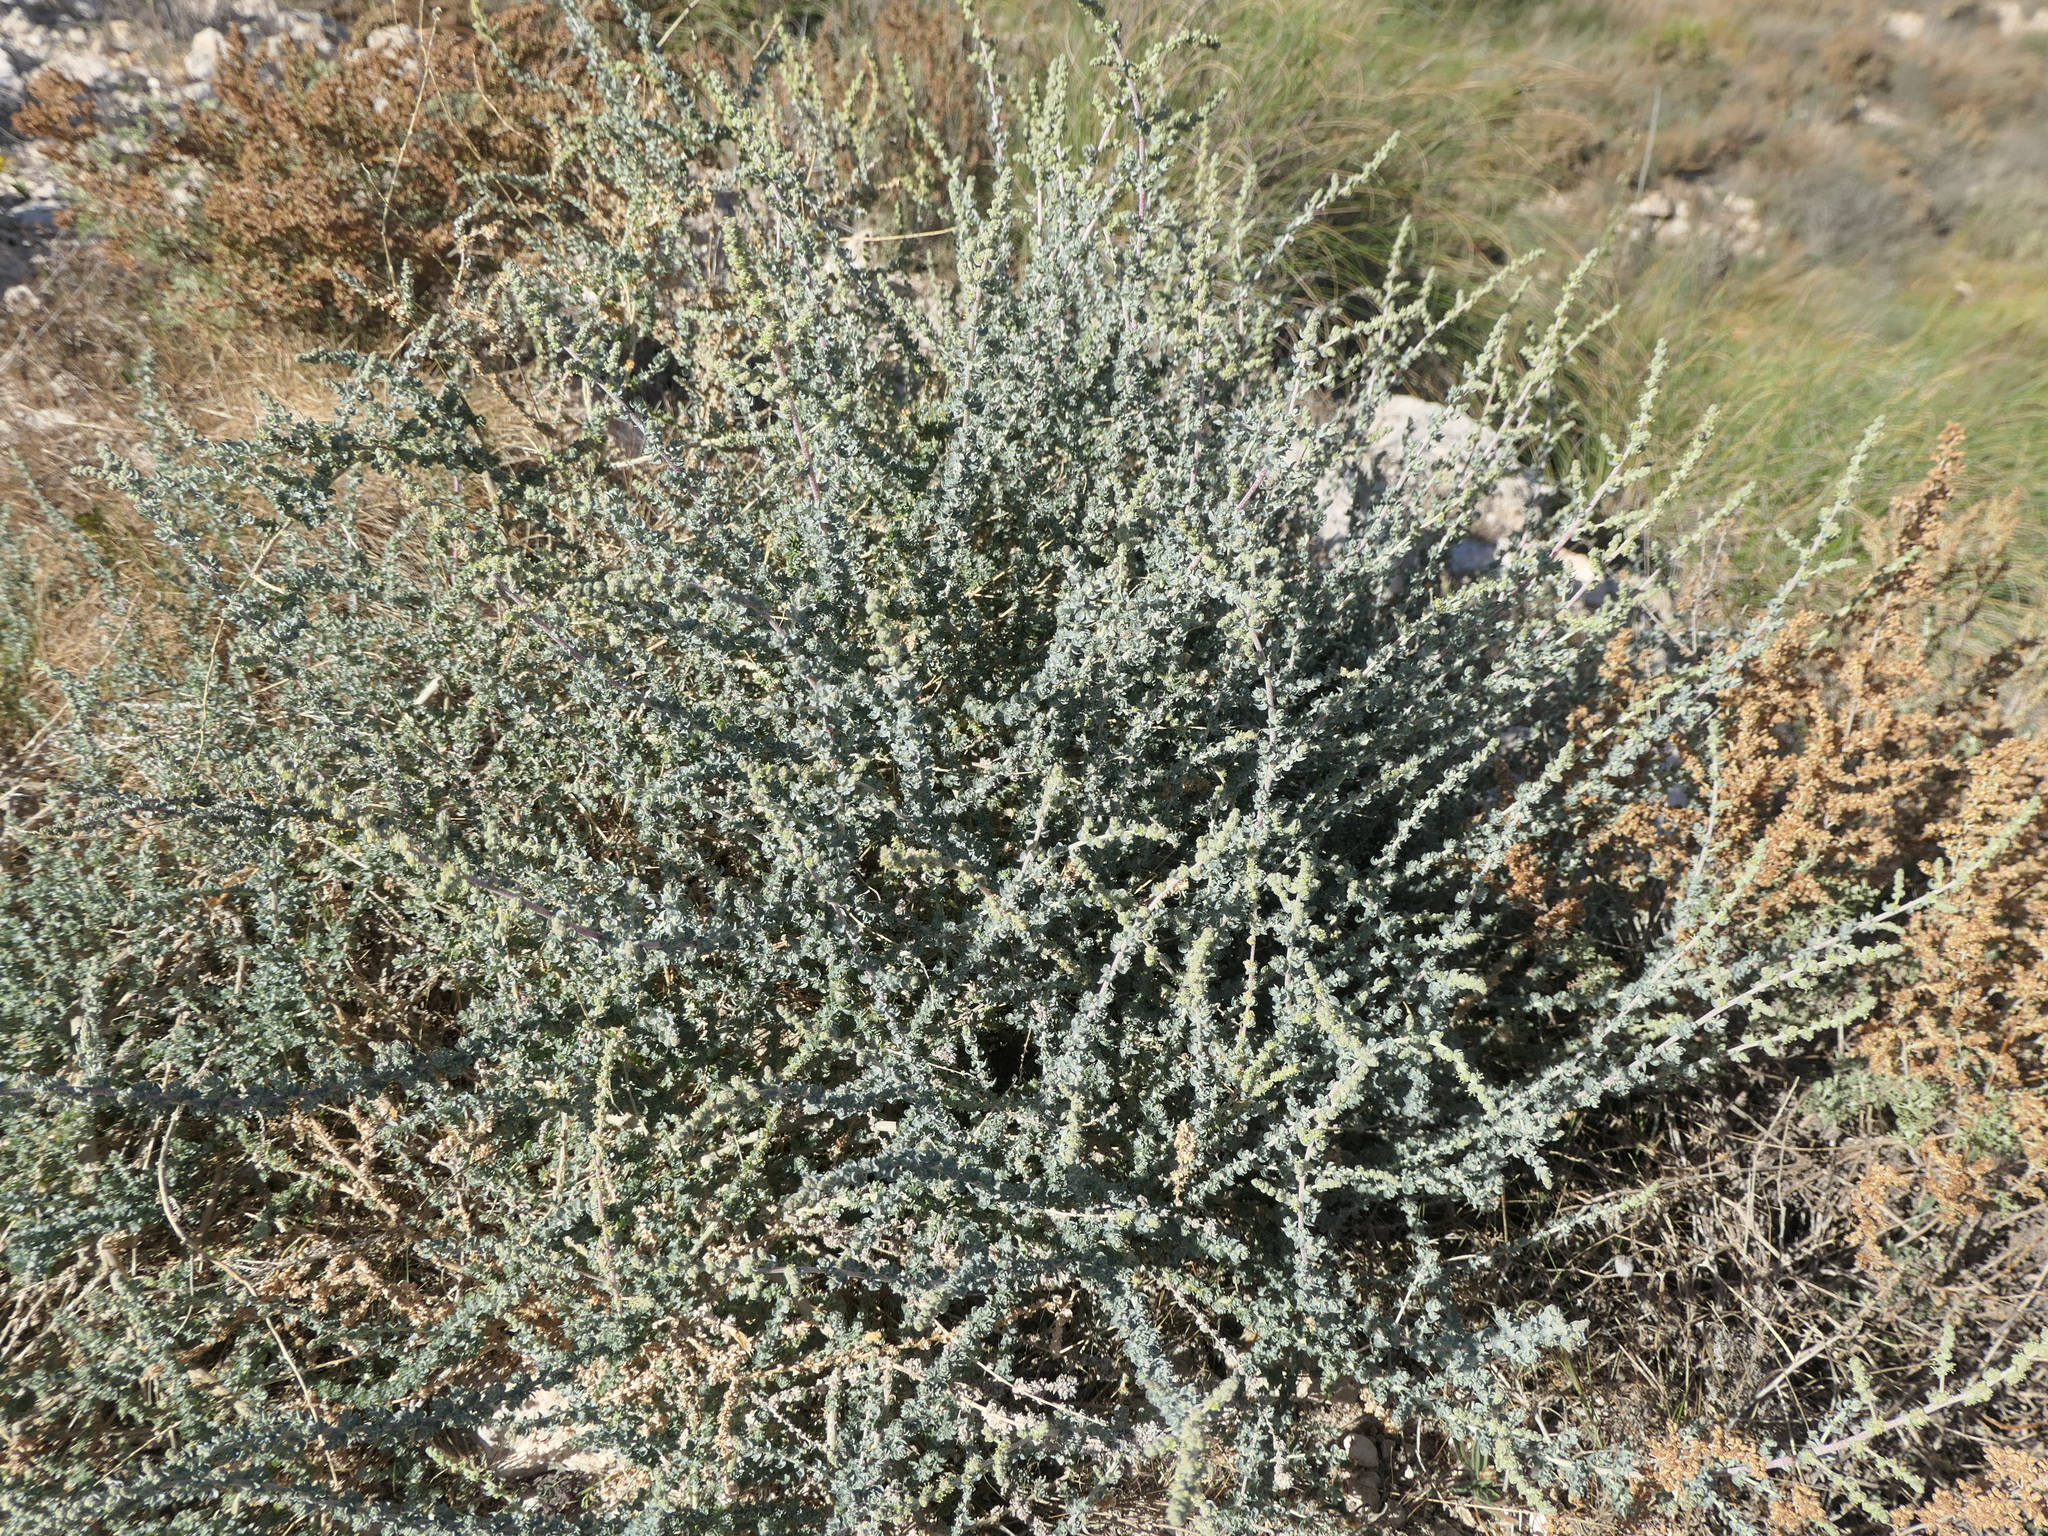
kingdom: Plantae
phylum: Tracheophyta
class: Magnoliopsida
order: Caryophyllales
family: Amaranthaceae
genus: Atriplex
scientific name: Atriplex glauca
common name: Waxy saltbush
